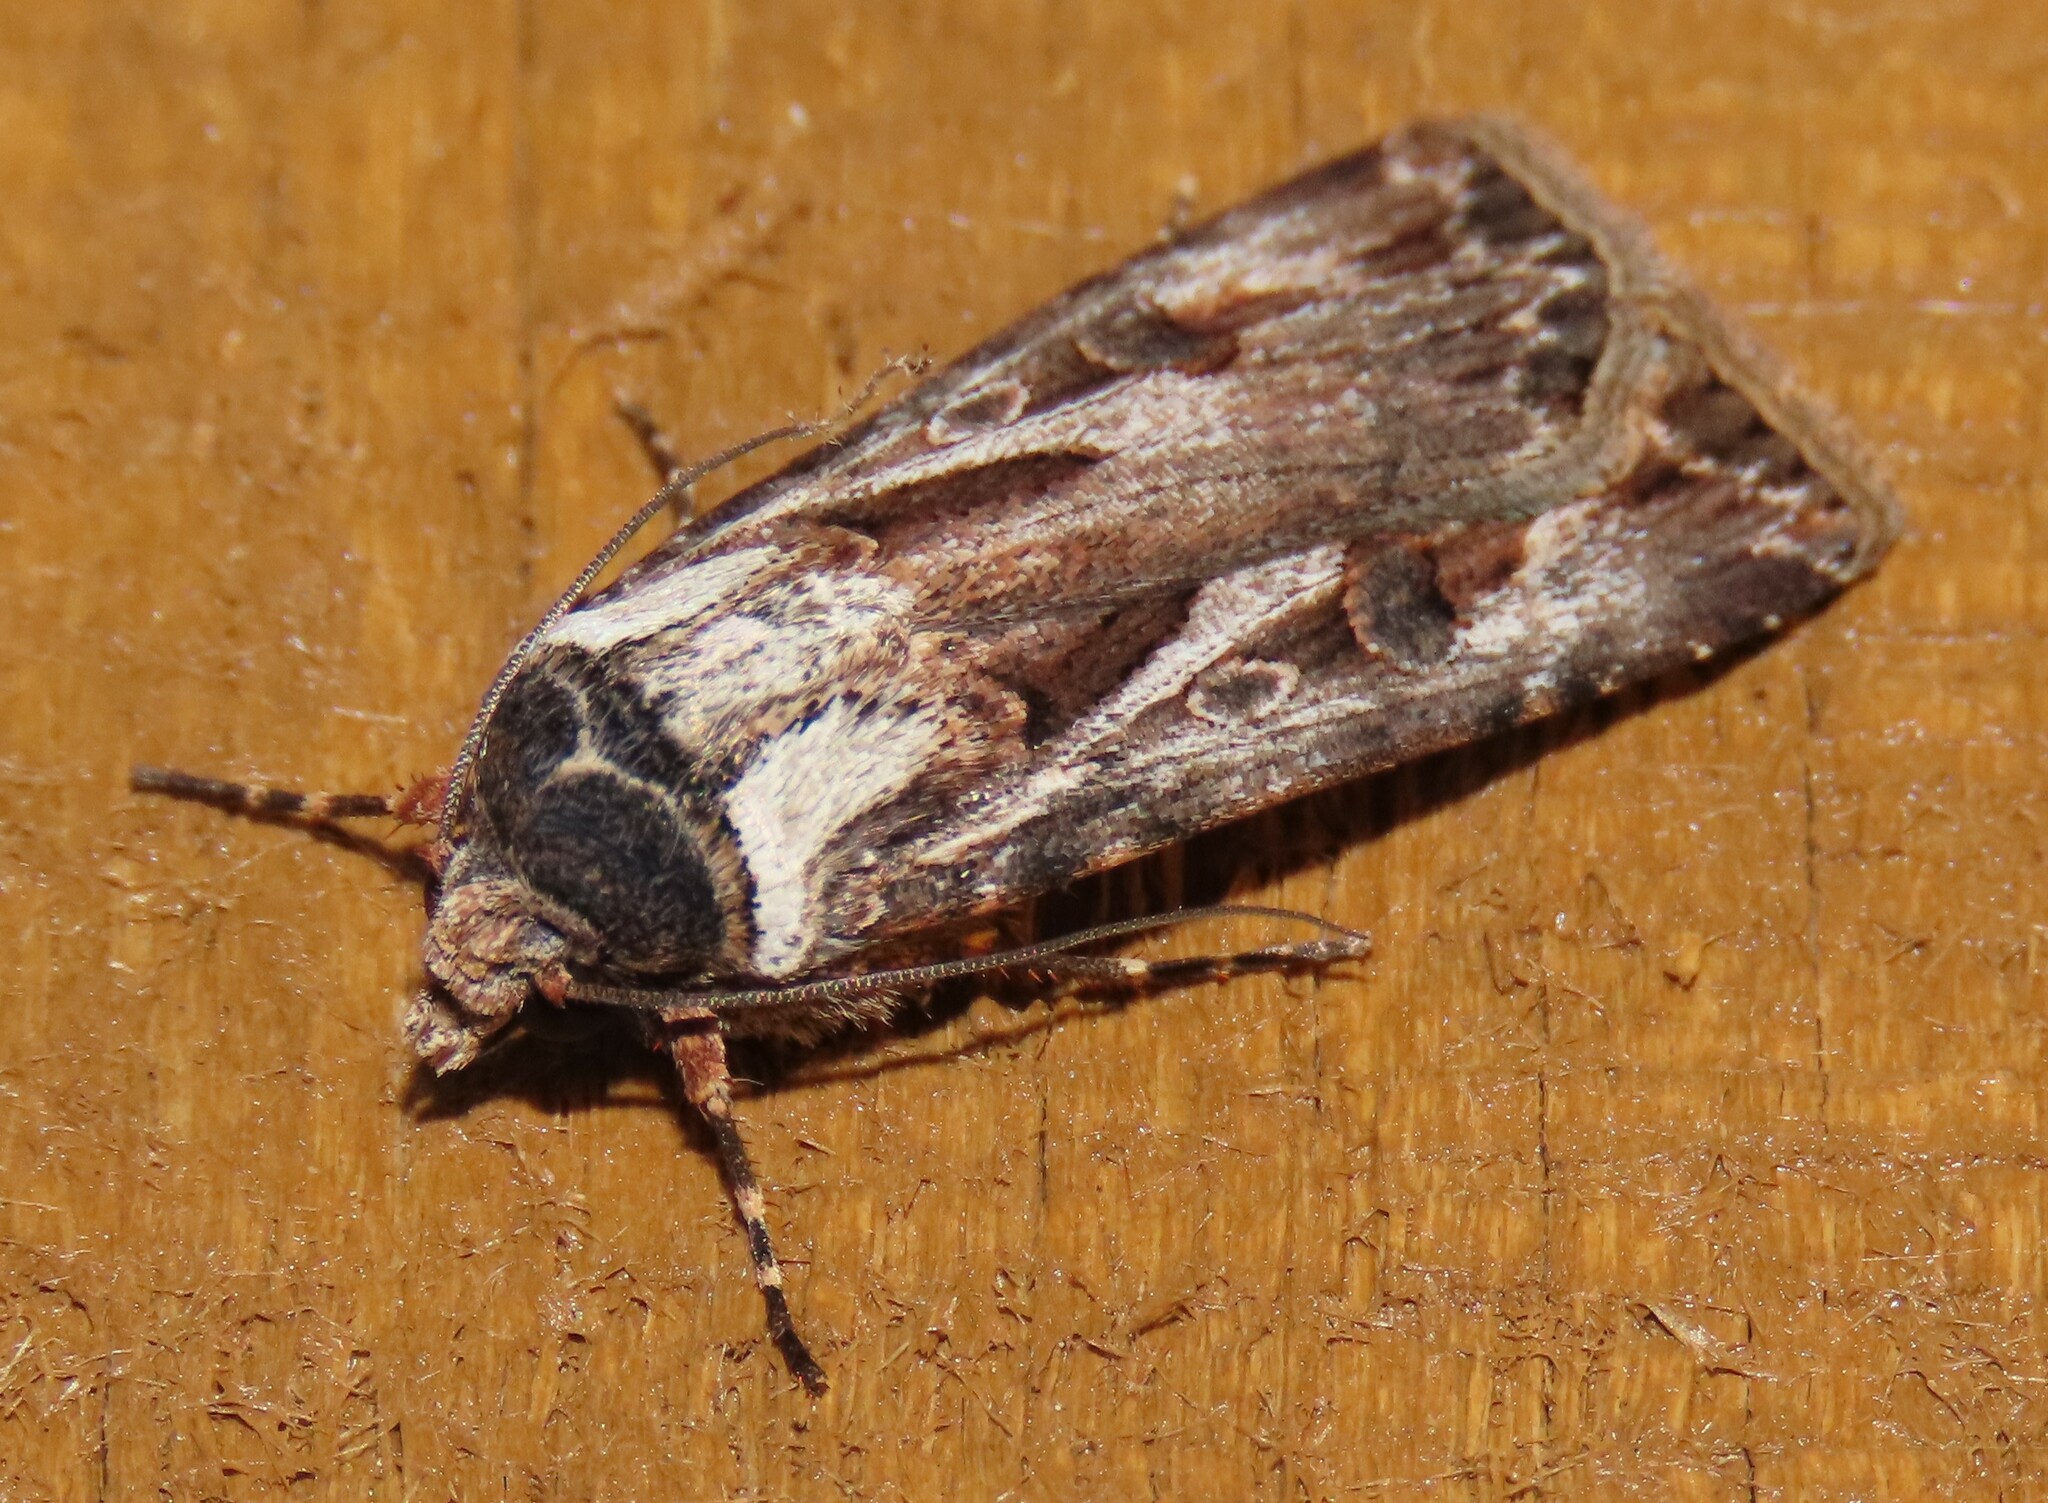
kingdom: Animalia
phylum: Arthropoda
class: Insecta
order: Lepidoptera
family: Noctuidae
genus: Agrotis
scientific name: Agrotis munda
